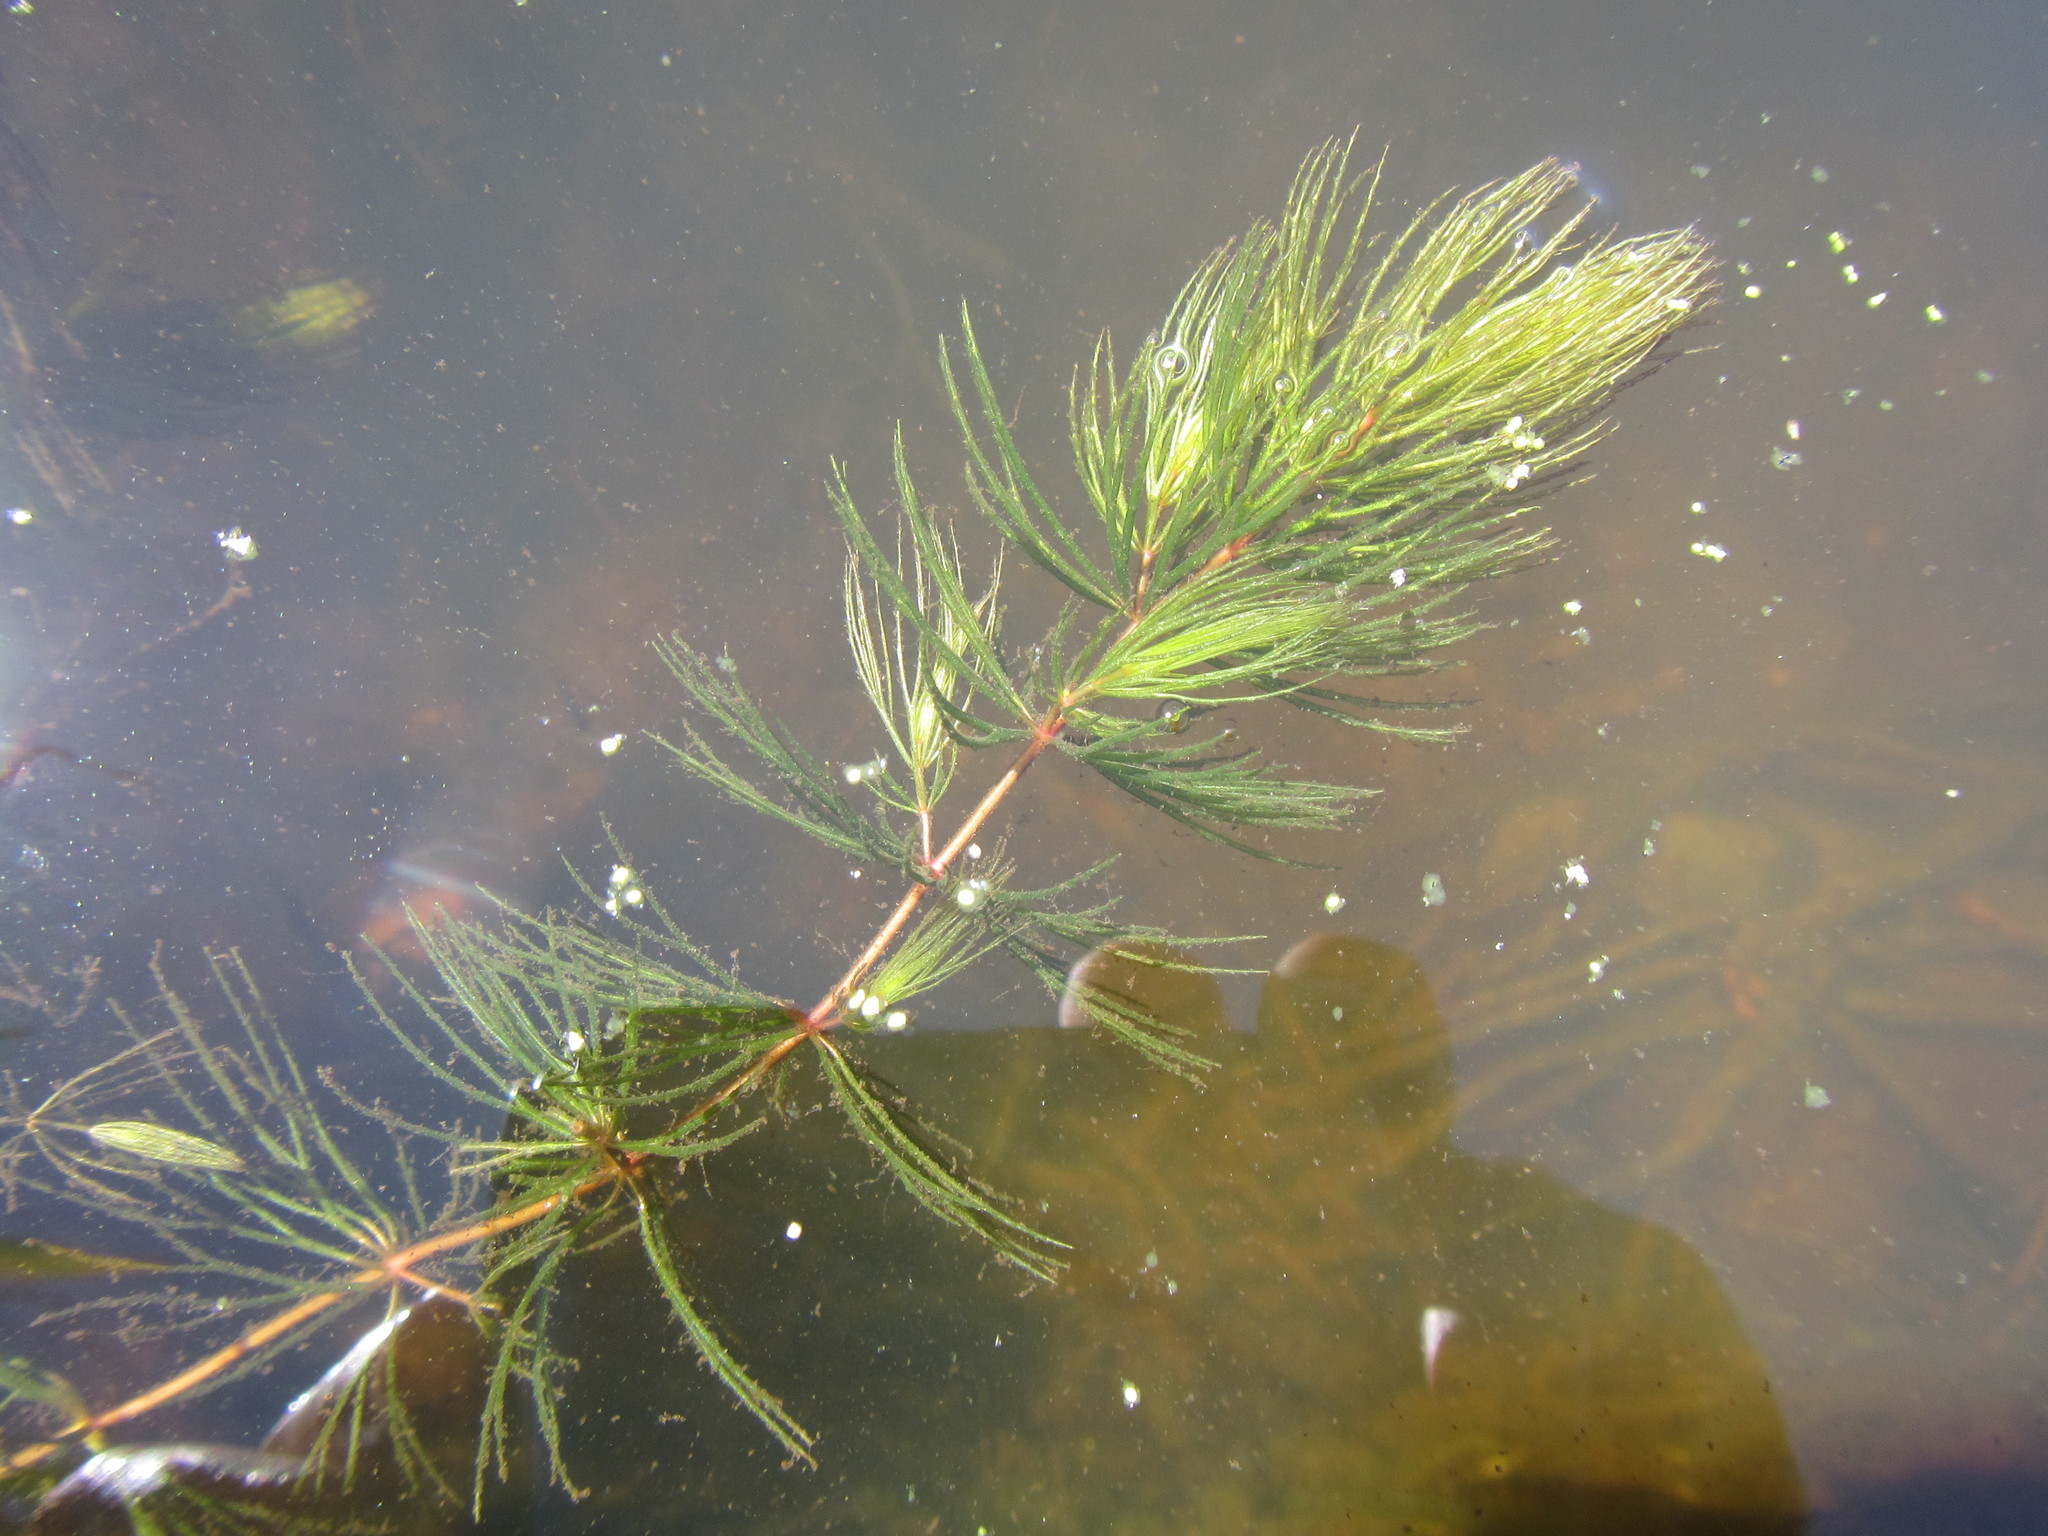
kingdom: Plantae
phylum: Tracheophyta
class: Magnoliopsida
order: Ceratophyllales
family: Ceratophyllaceae
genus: Ceratophyllum
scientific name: Ceratophyllum demersum
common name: Rigid hornwort
